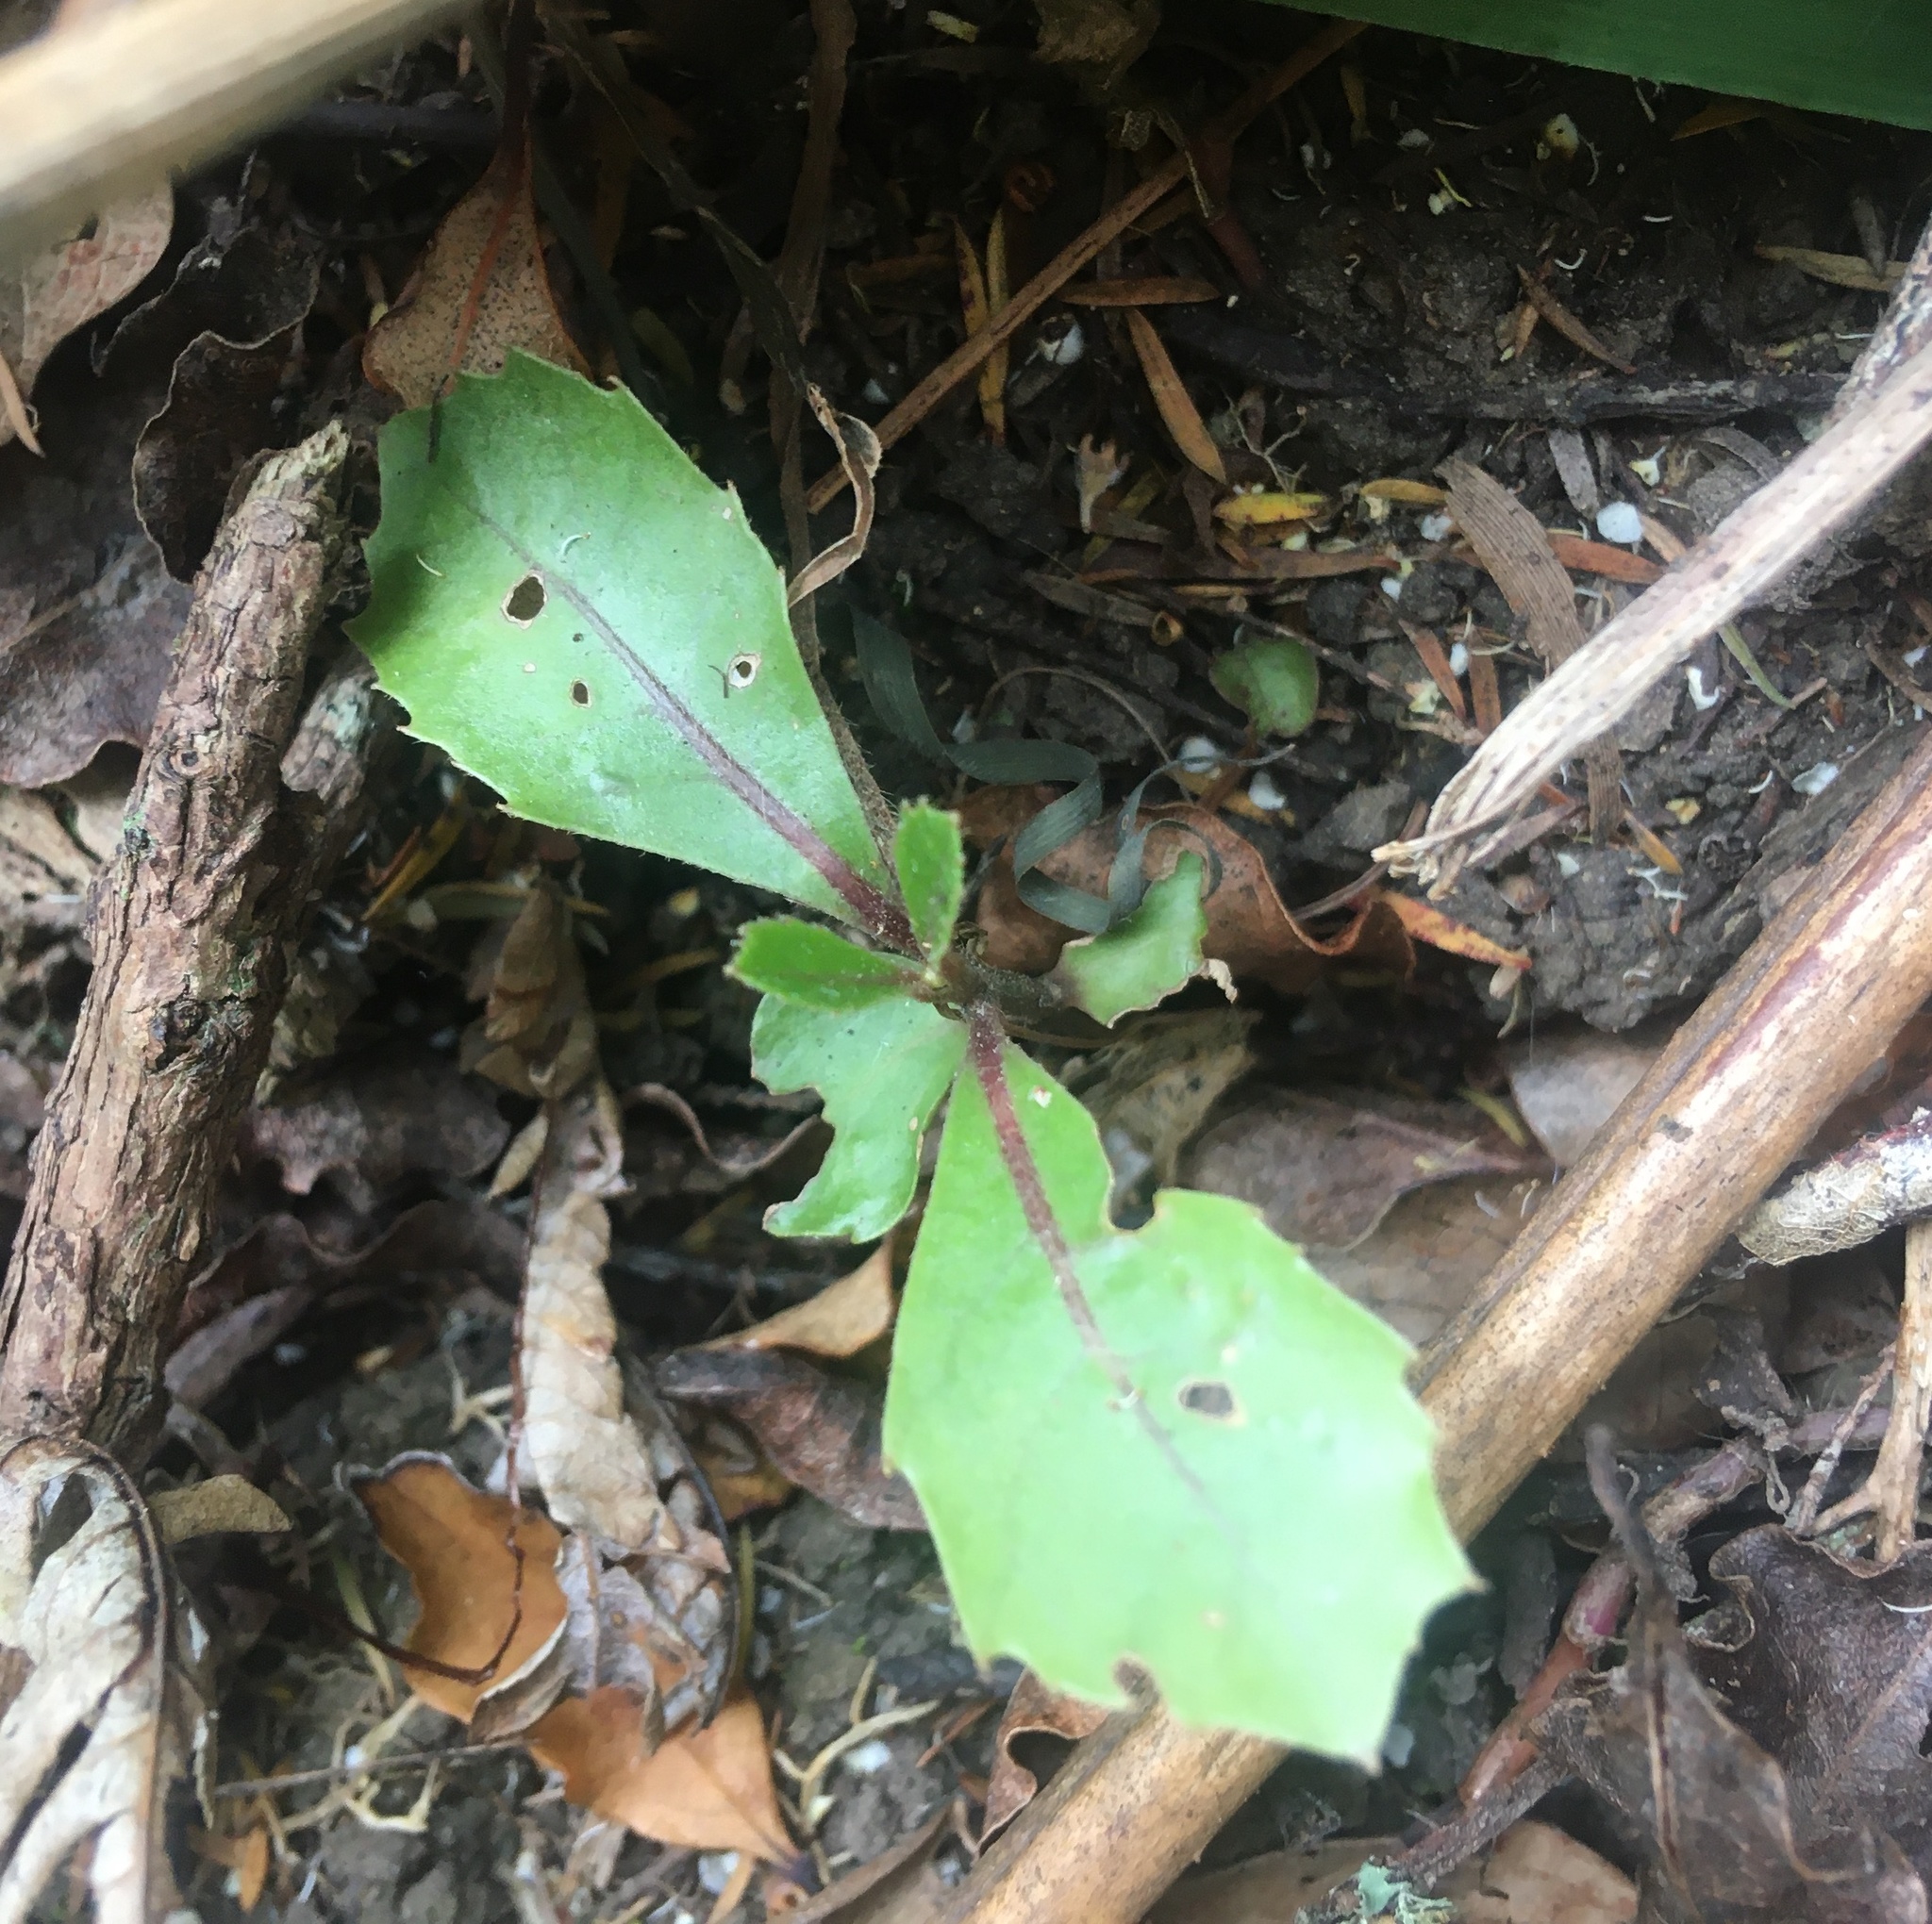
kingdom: Plantae
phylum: Tracheophyta
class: Magnoliopsida
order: Laurales
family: Monimiaceae
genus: Hedycarya
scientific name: Hedycarya arborea
